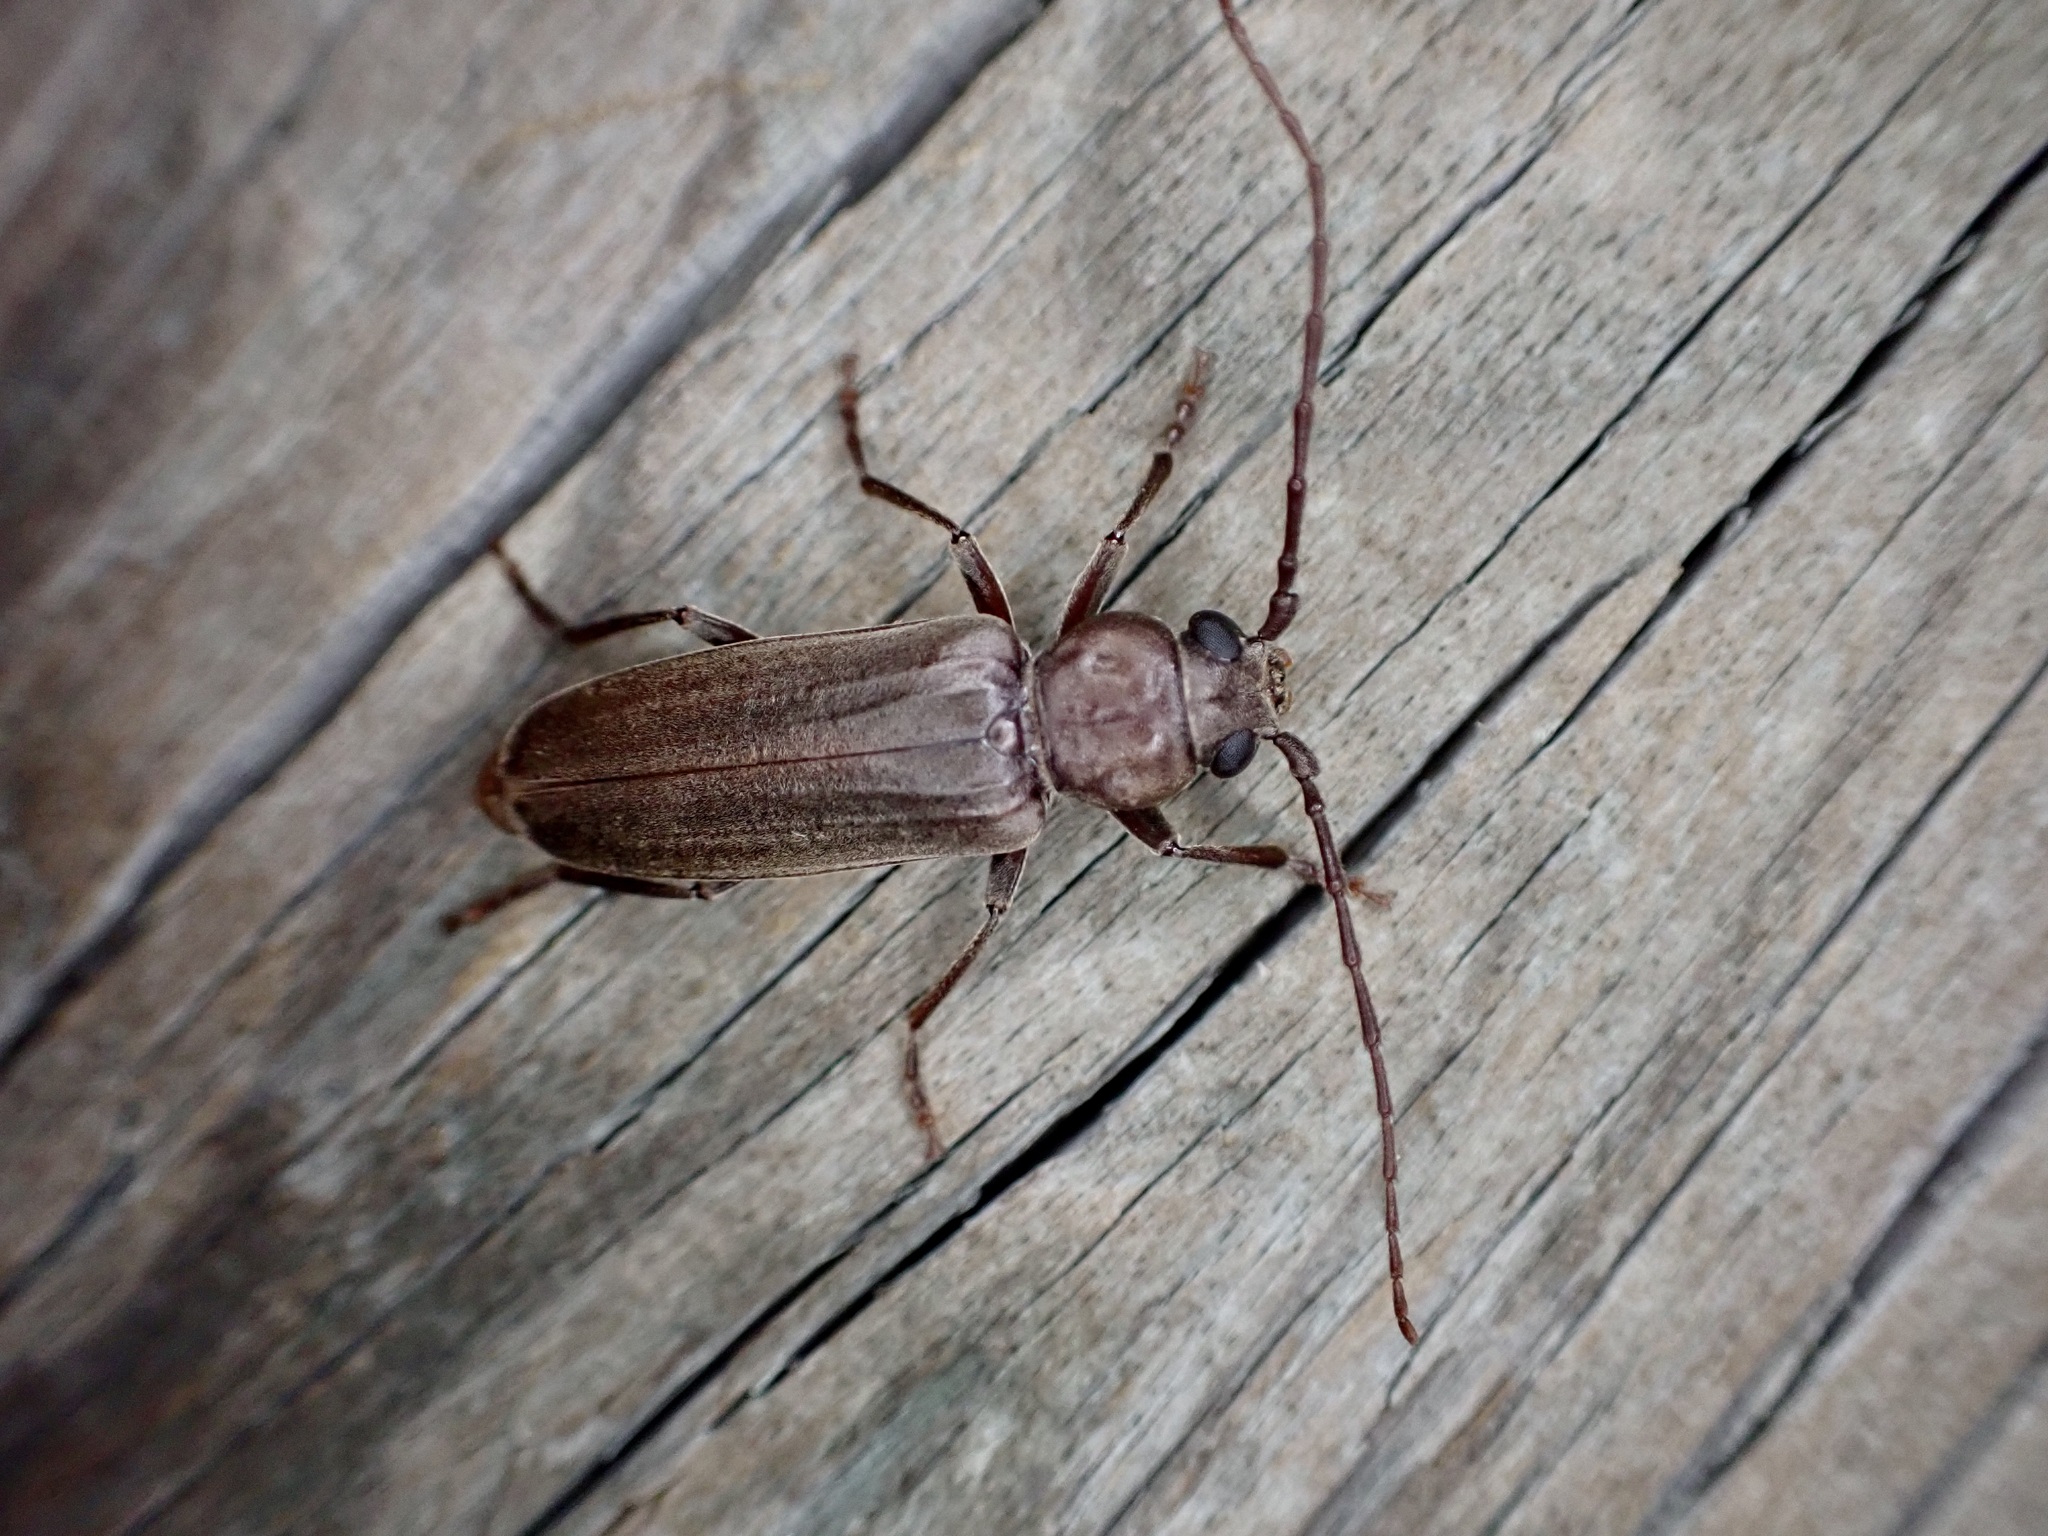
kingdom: Animalia
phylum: Arthropoda
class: Insecta
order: Coleoptera
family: Cerambycidae
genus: Arhopalus
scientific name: Arhopalus ferus
